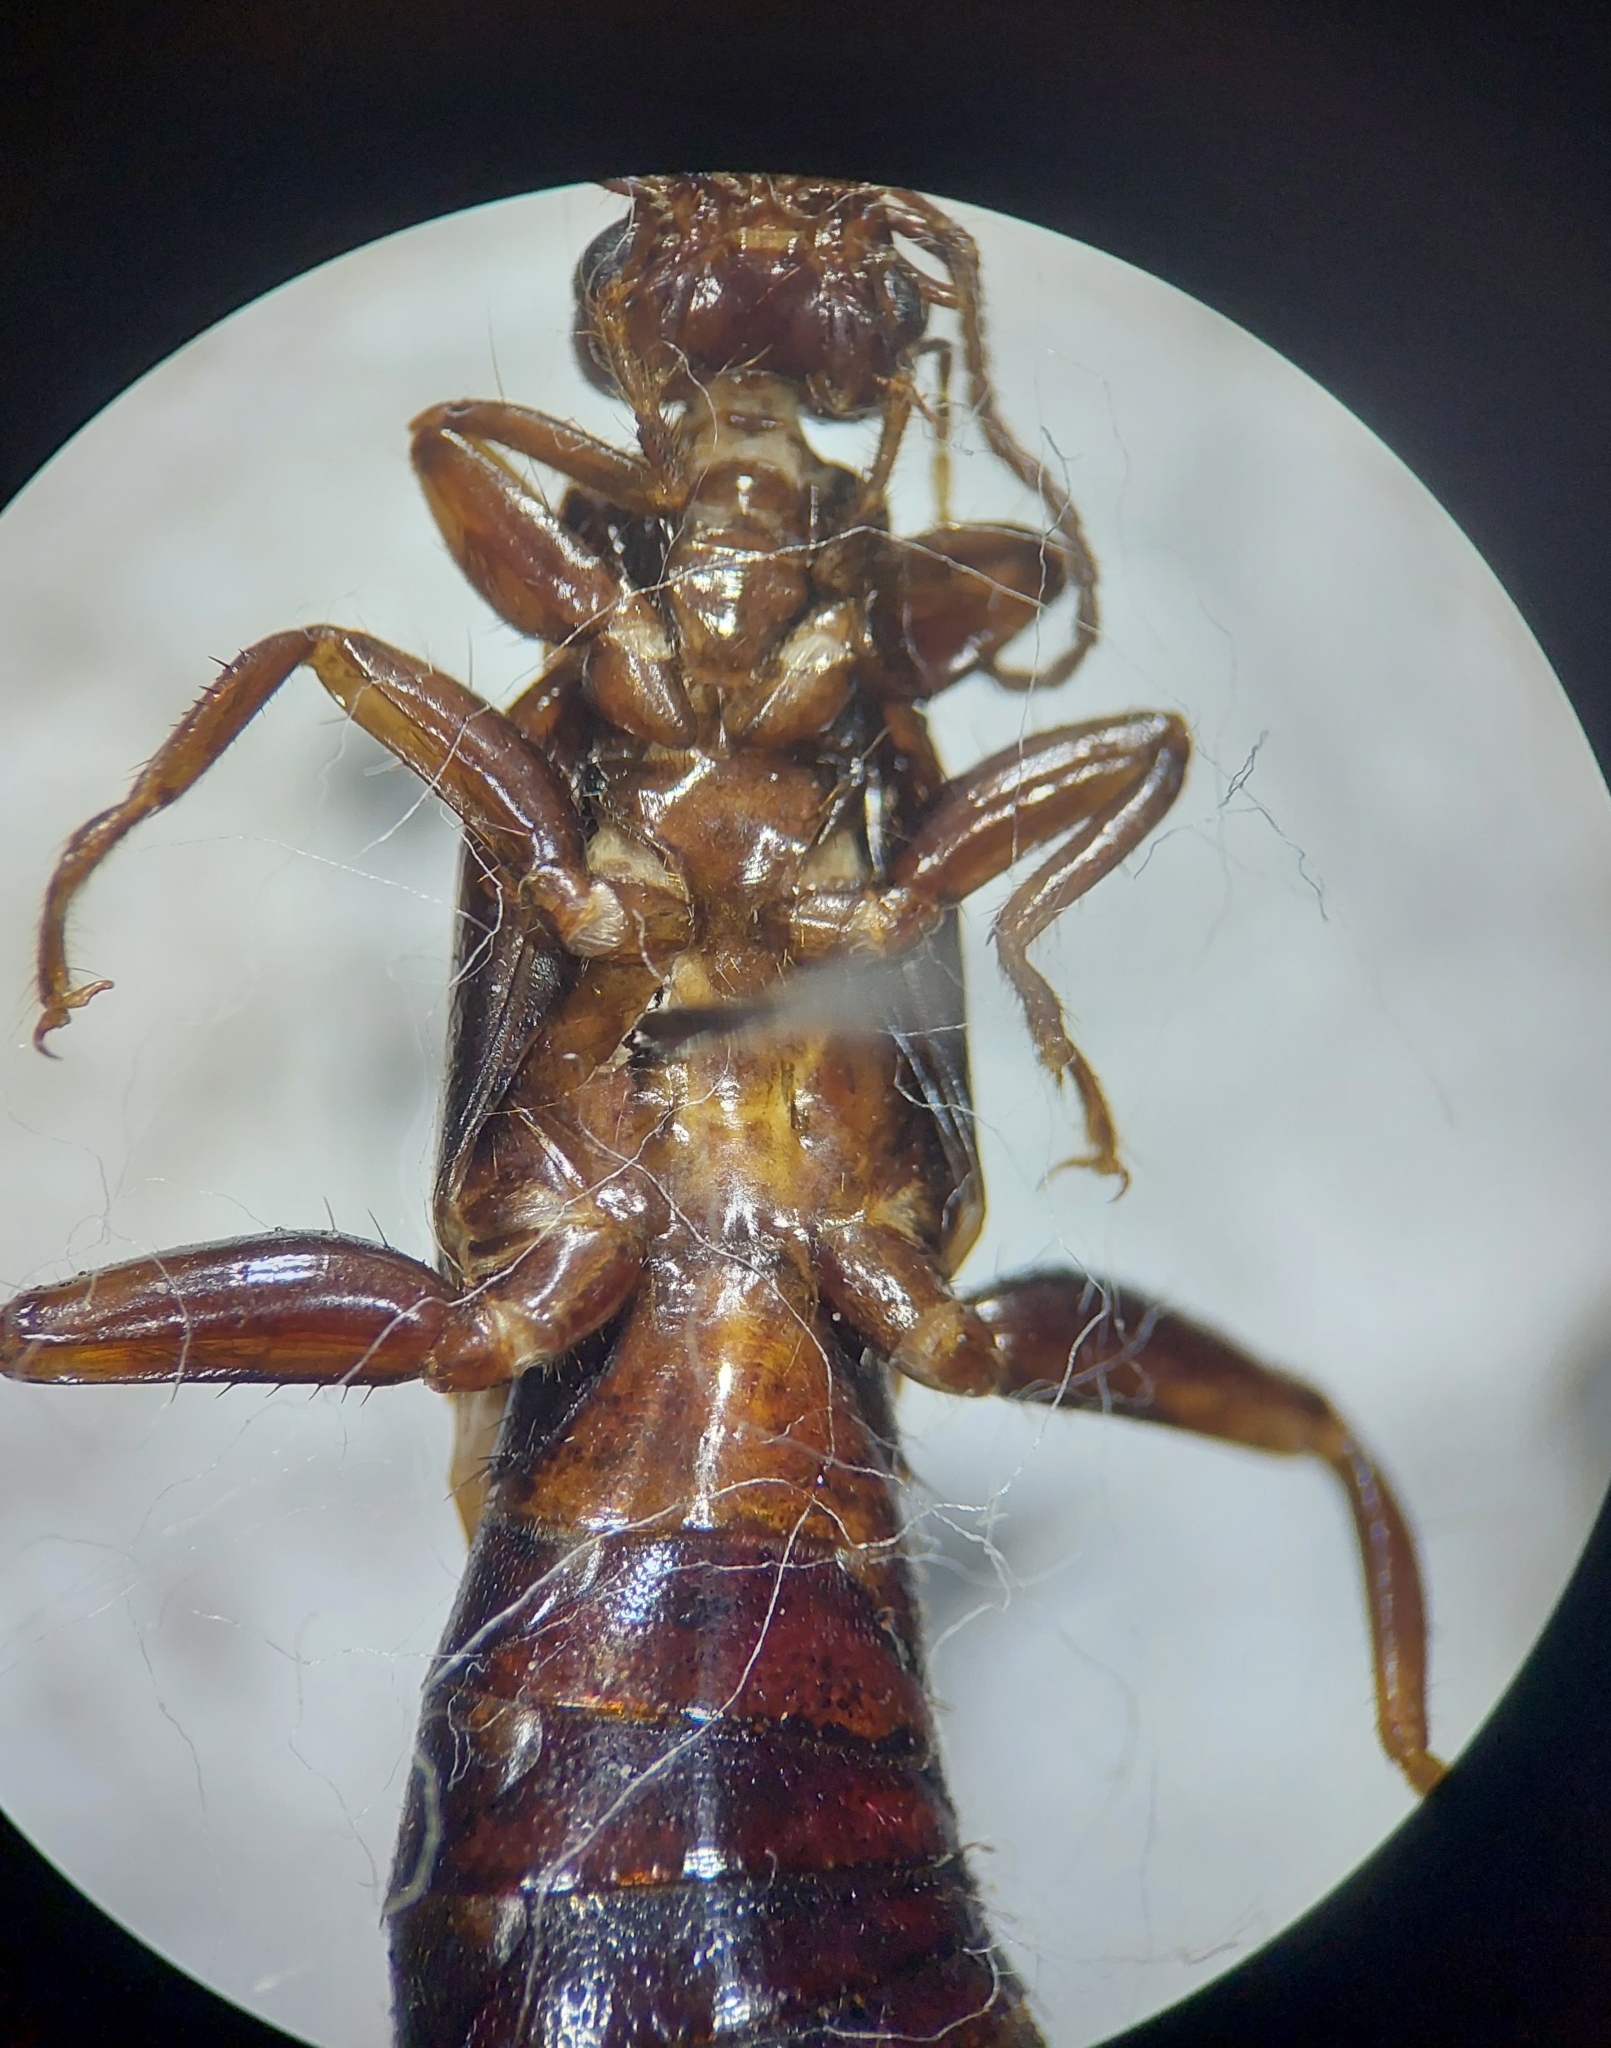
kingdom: Animalia
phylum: Arthropoda
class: Insecta
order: Dermaptera
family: Labiduridae
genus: Allostethus
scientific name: Allostethus indicum
